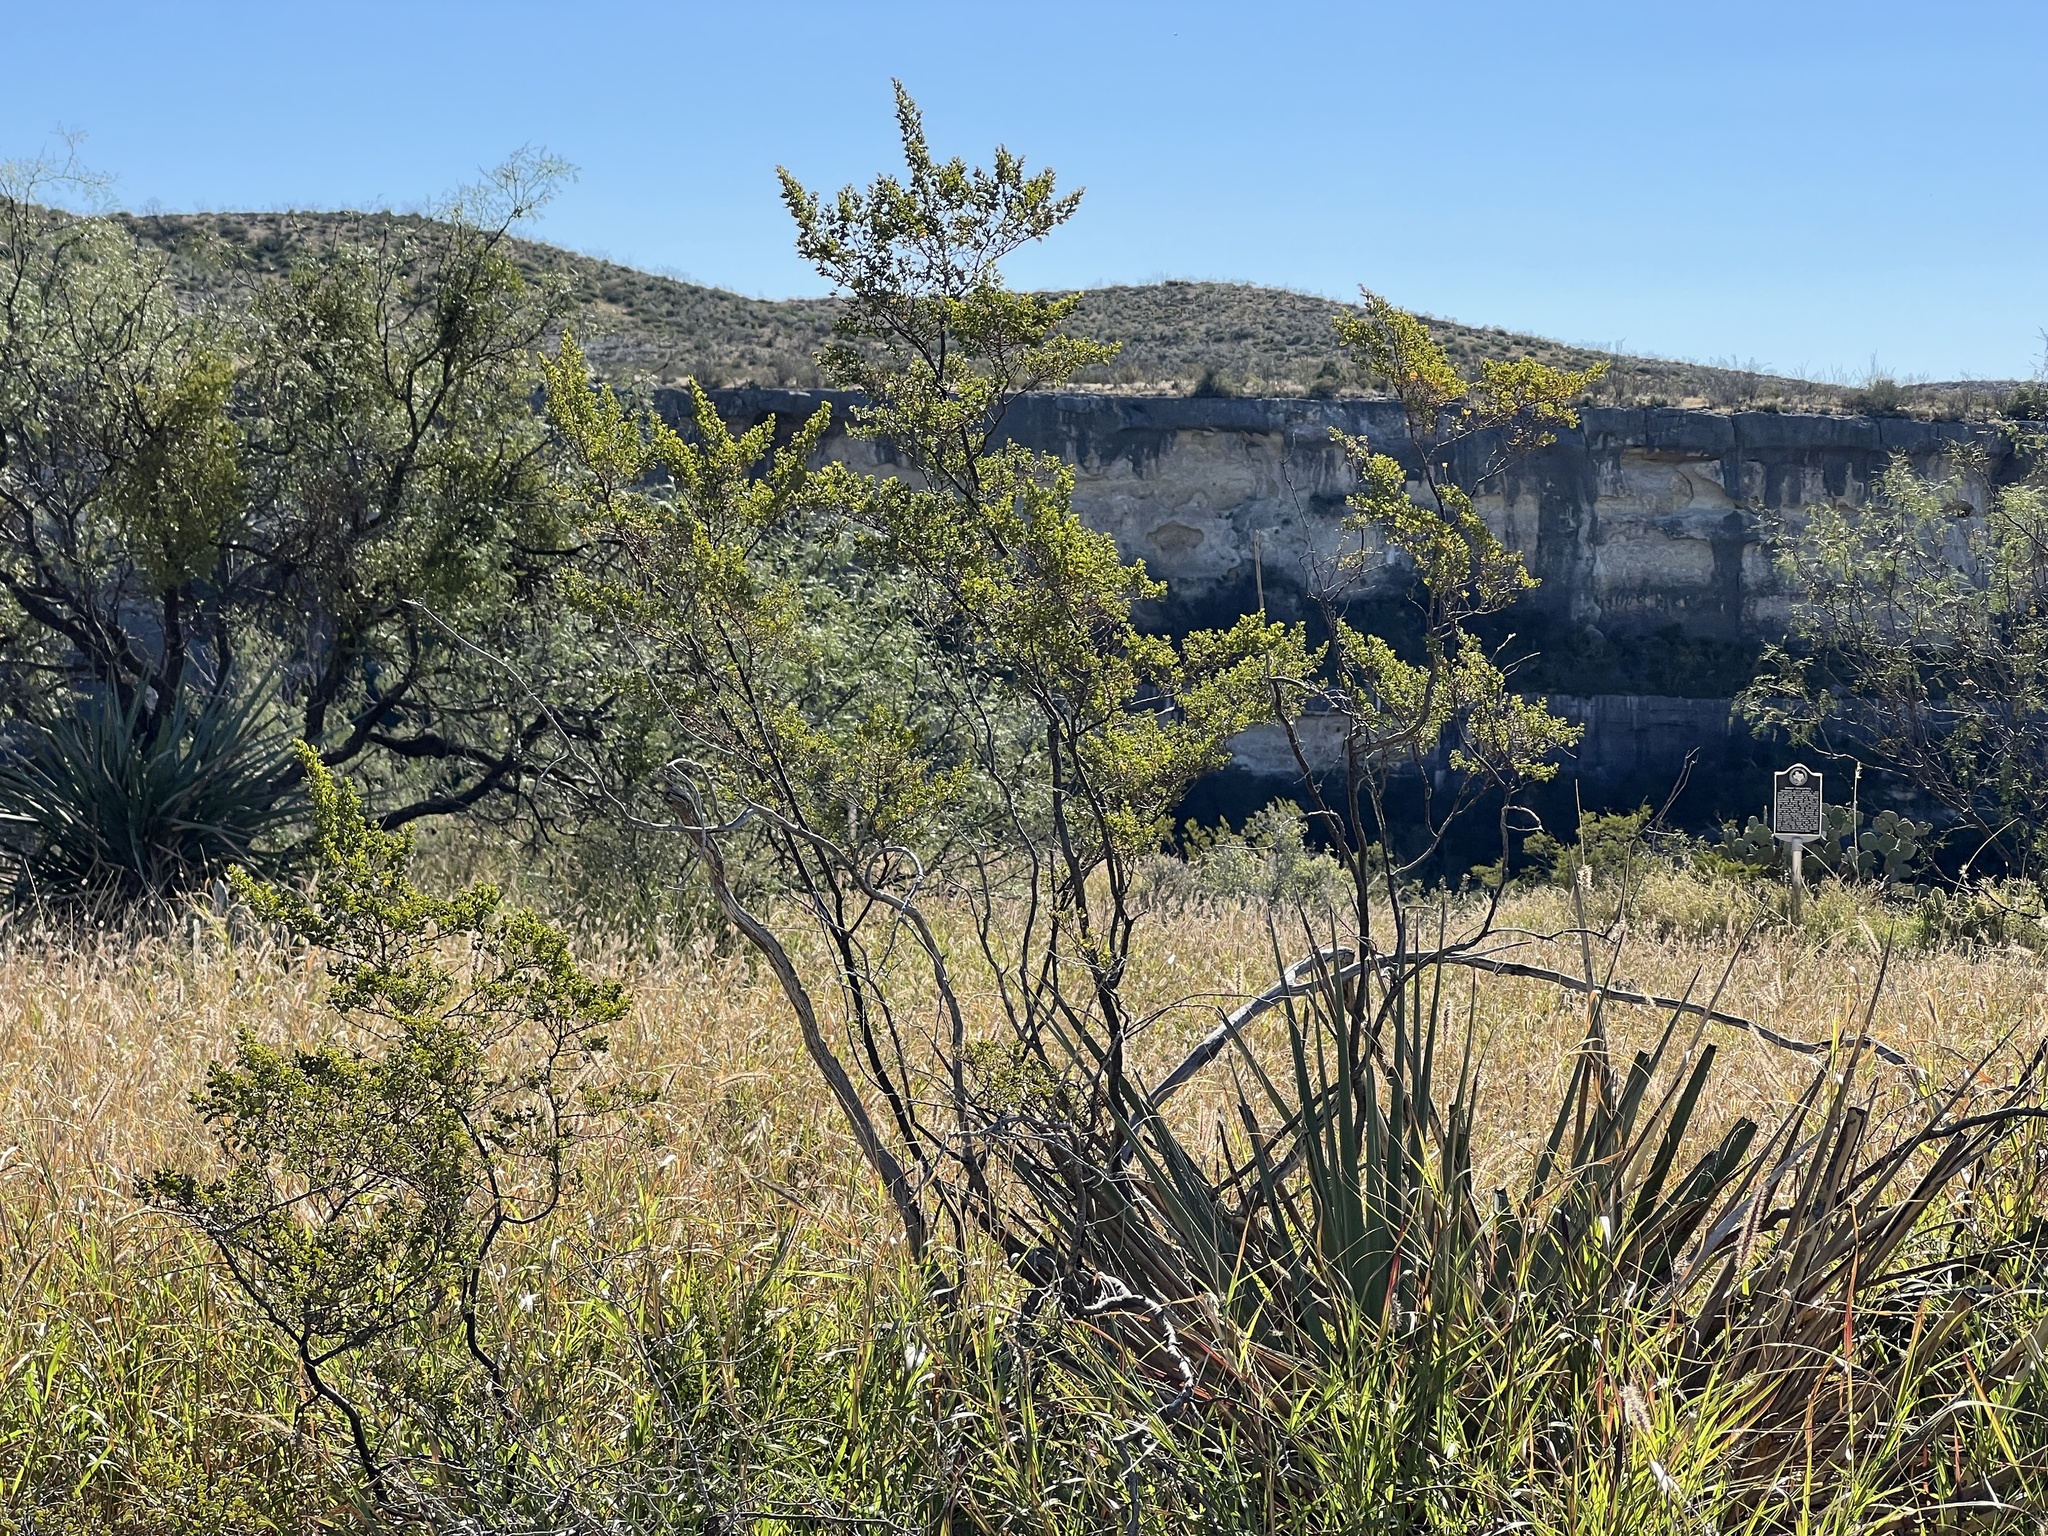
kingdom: Plantae
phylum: Tracheophyta
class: Magnoliopsida
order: Zygophyllales
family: Zygophyllaceae
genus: Larrea
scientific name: Larrea tridentata
